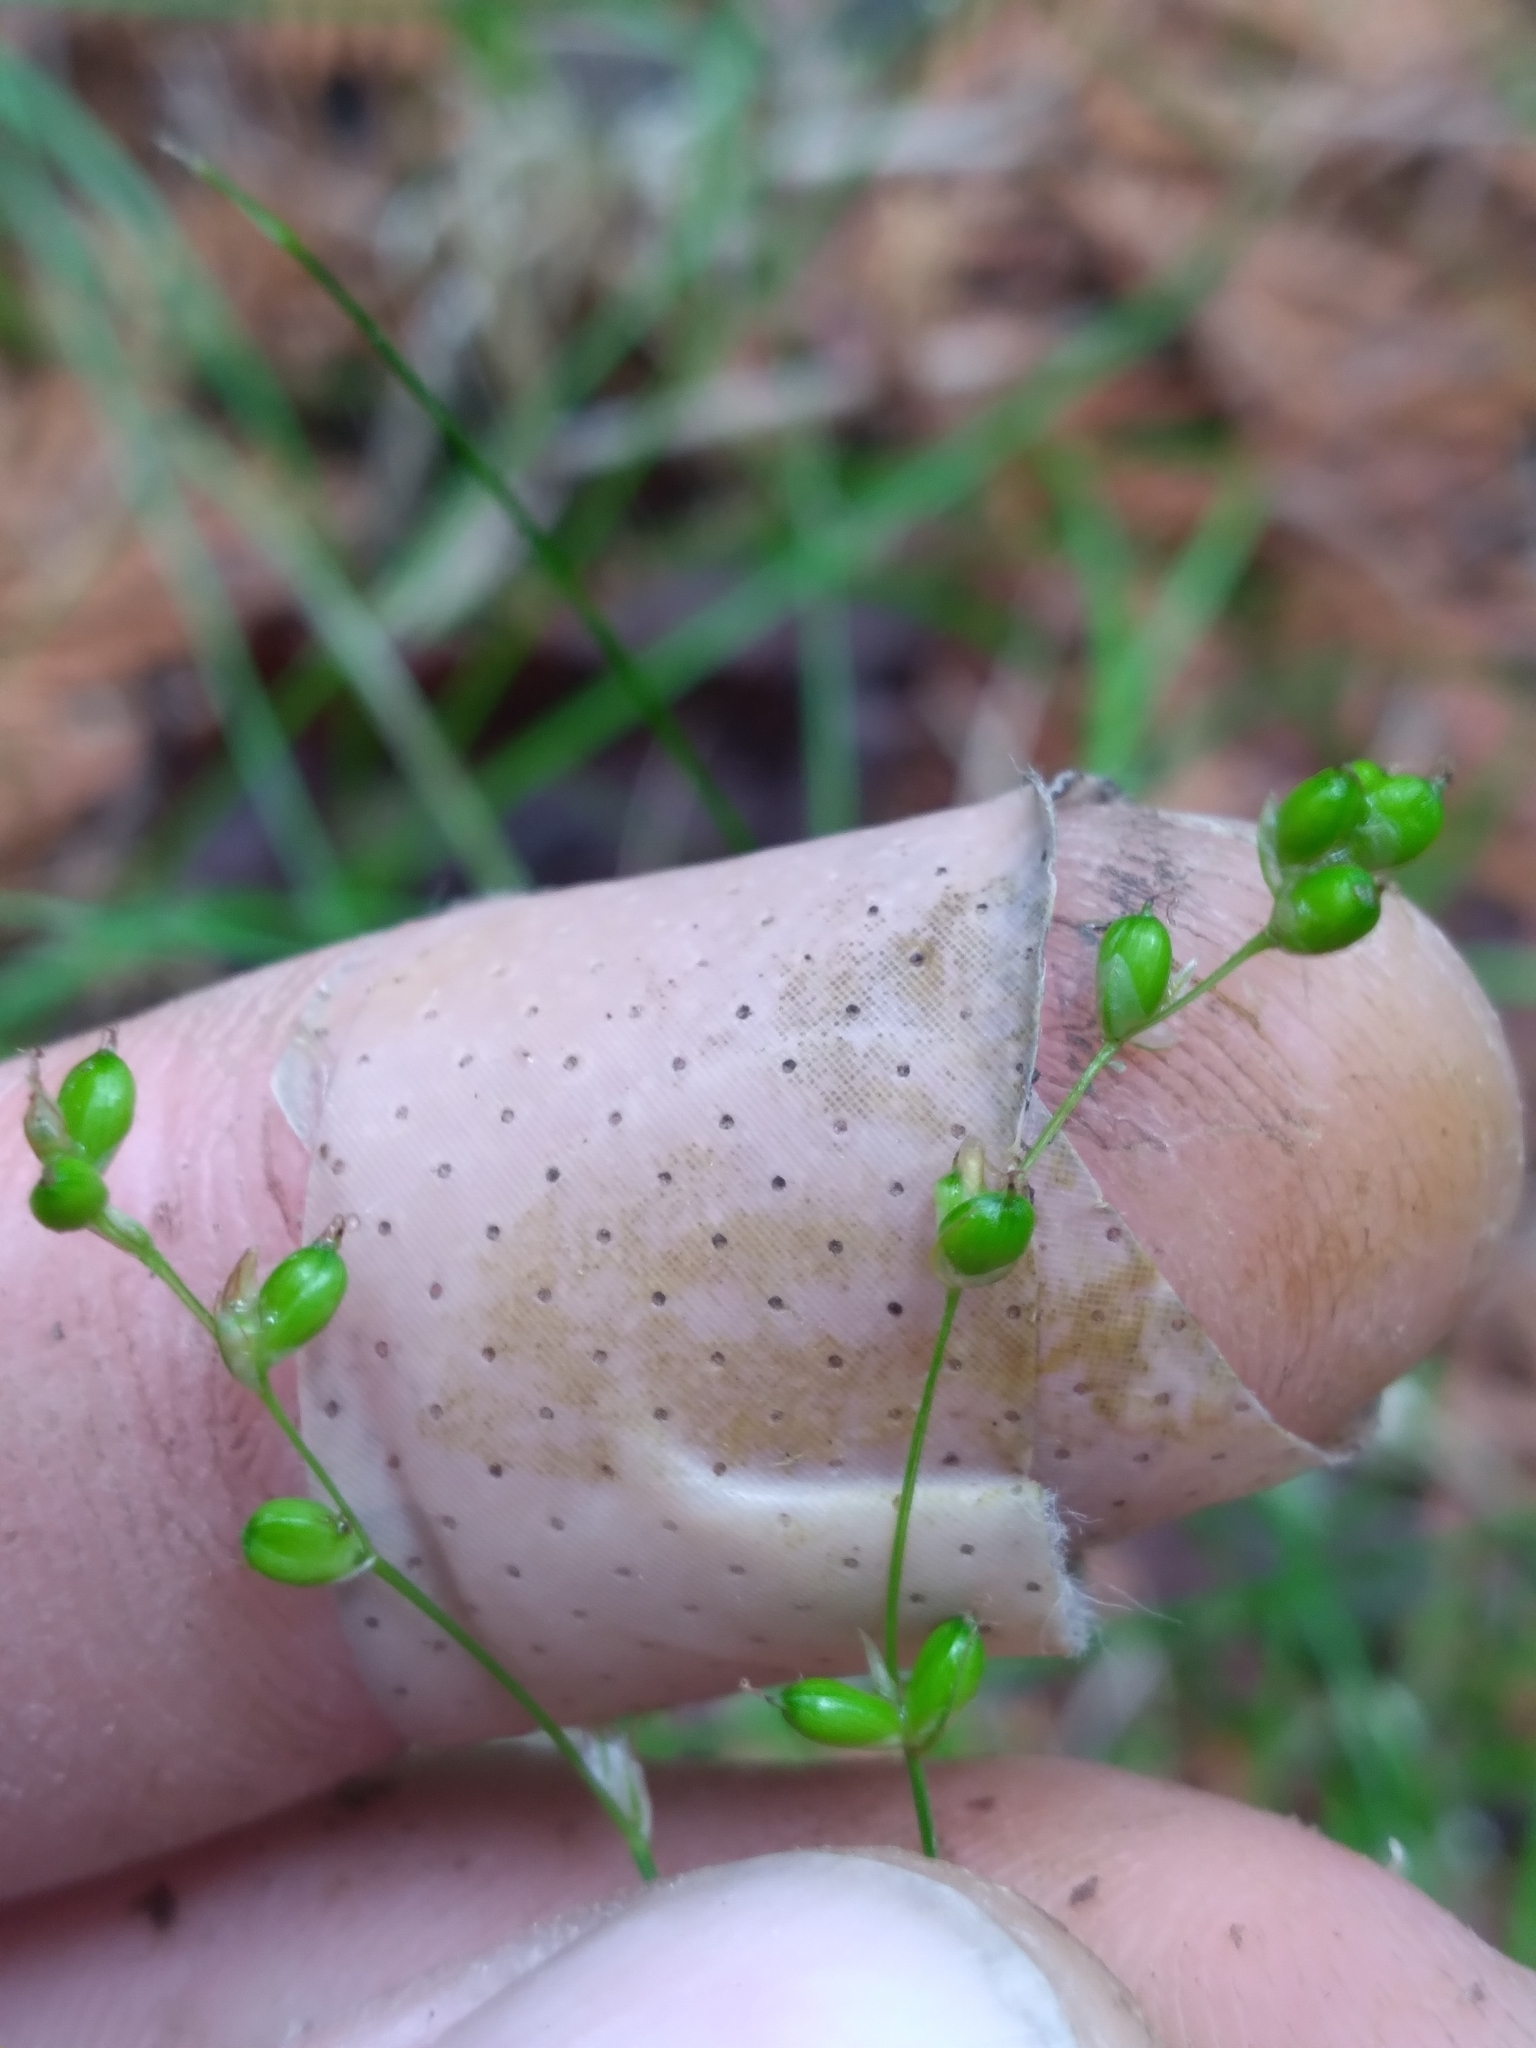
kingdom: Plantae
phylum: Tracheophyta
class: Liliopsida
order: Poales
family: Cyperaceae
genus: Carex
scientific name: Carex disperma
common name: Short-leaved sedge
